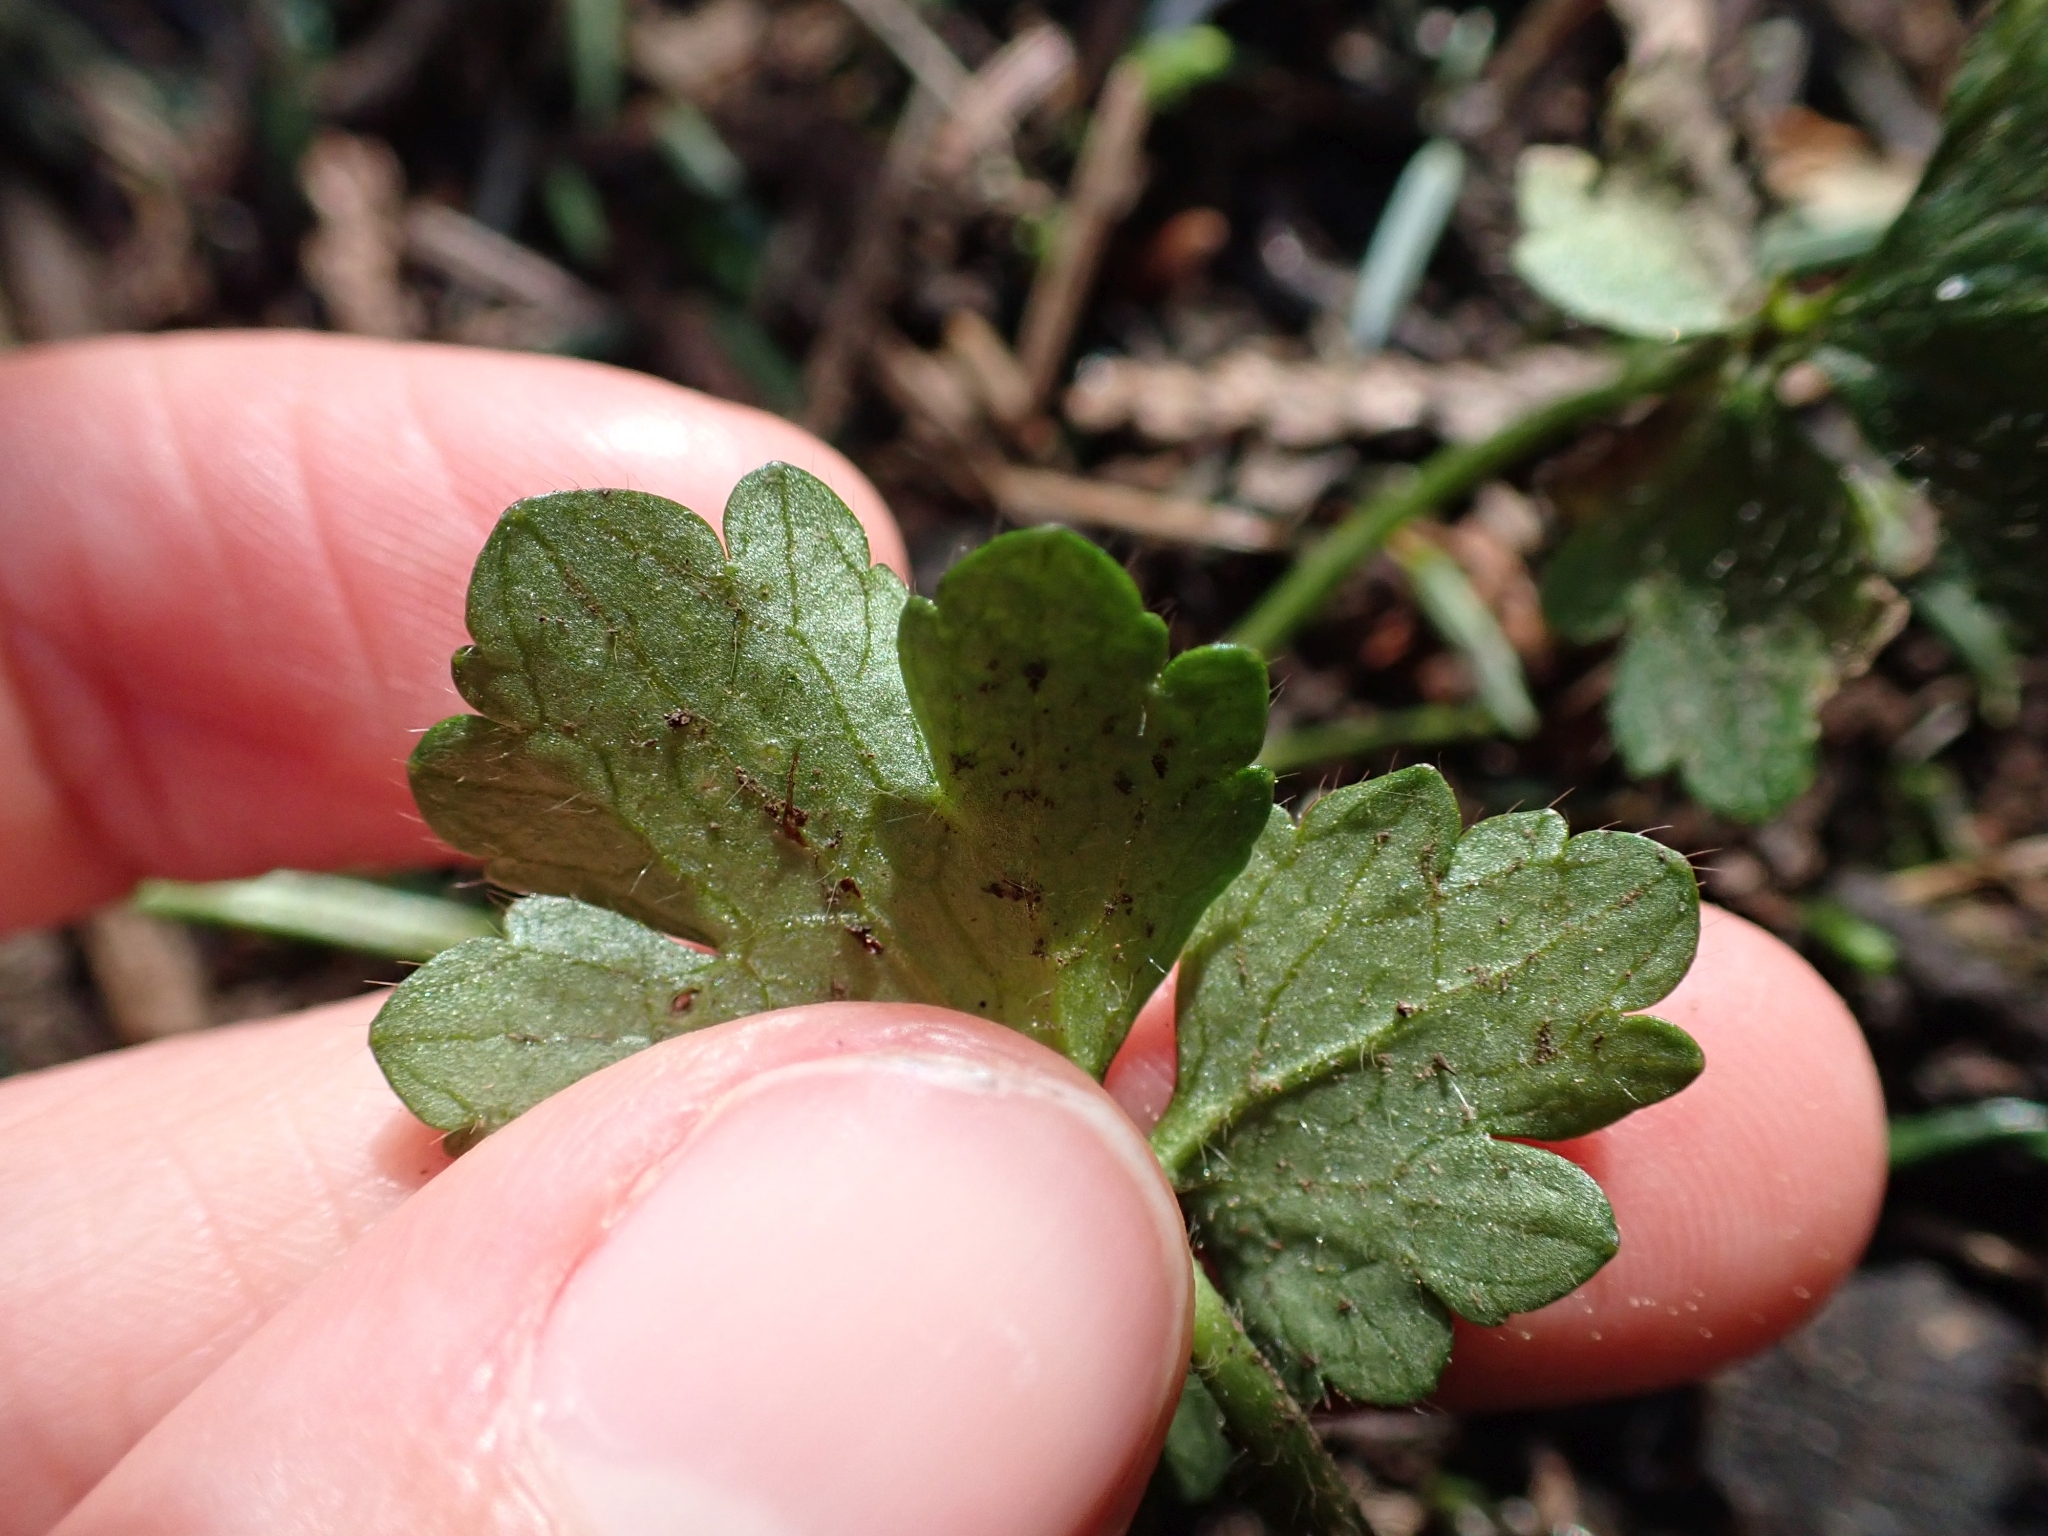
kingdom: Plantae
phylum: Tracheophyta
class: Magnoliopsida
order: Ranunculales
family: Ranunculaceae
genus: Ranunculus
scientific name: Ranunculus repens
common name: Creeping buttercup
